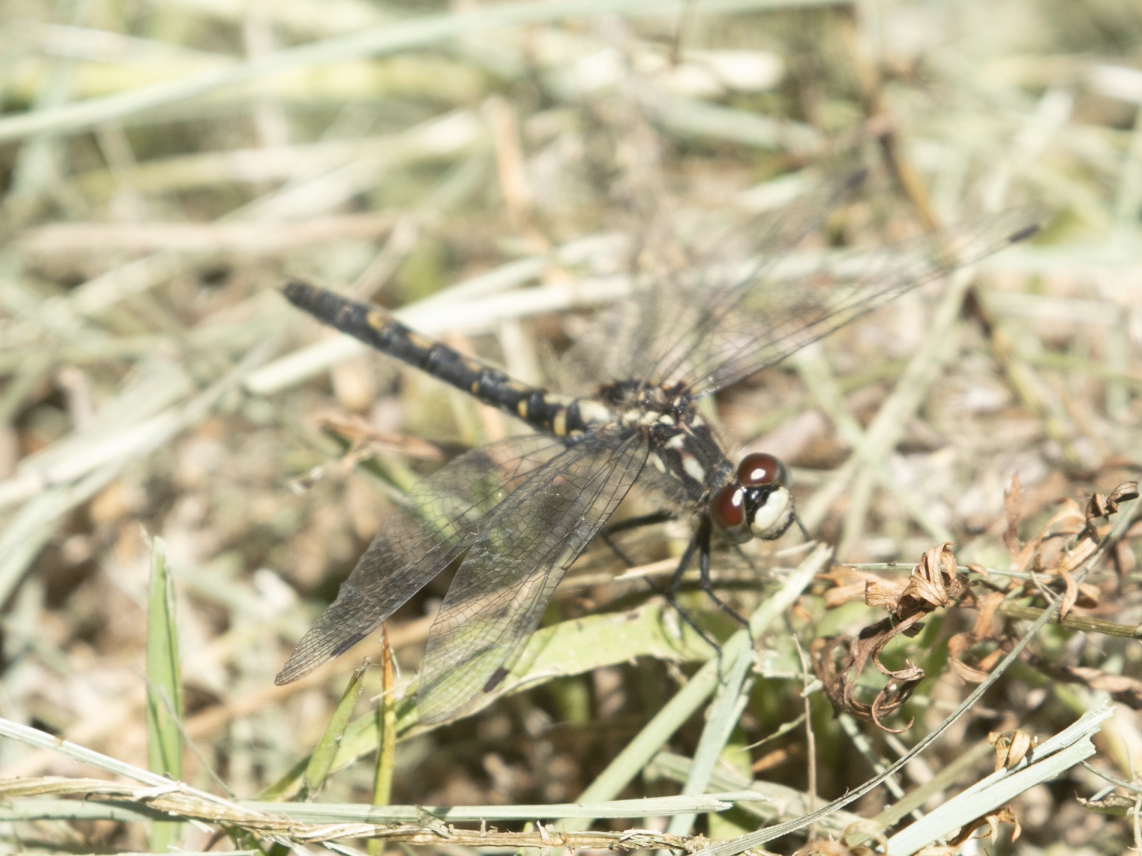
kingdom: Animalia
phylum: Arthropoda
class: Insecta
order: Odonata
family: Libellulidae
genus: Leucorrhinia
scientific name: Leucorrhinia dubia
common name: White-faced darter
